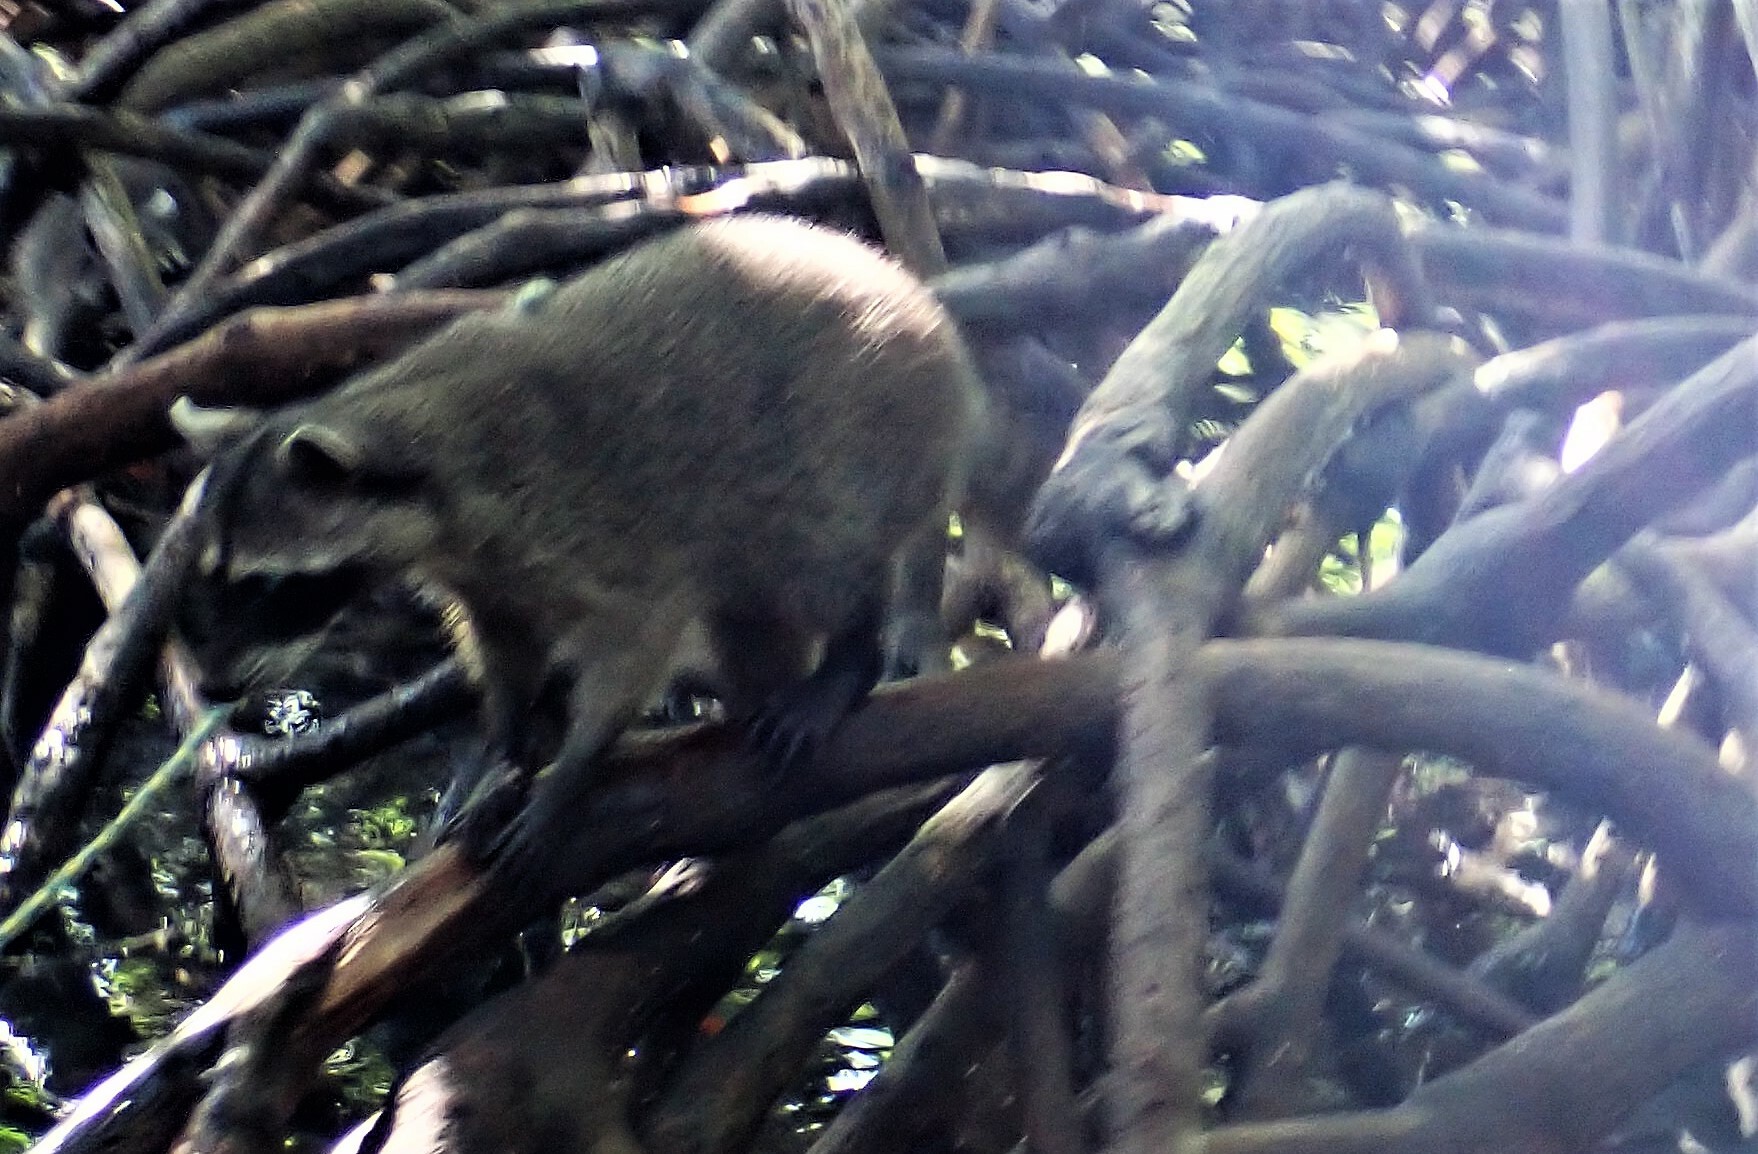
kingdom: Animalia
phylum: Chordata
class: Mammalia
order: Carnivora
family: Procyonidae
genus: Procyon
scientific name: Procyon lotor
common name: Raccoon
